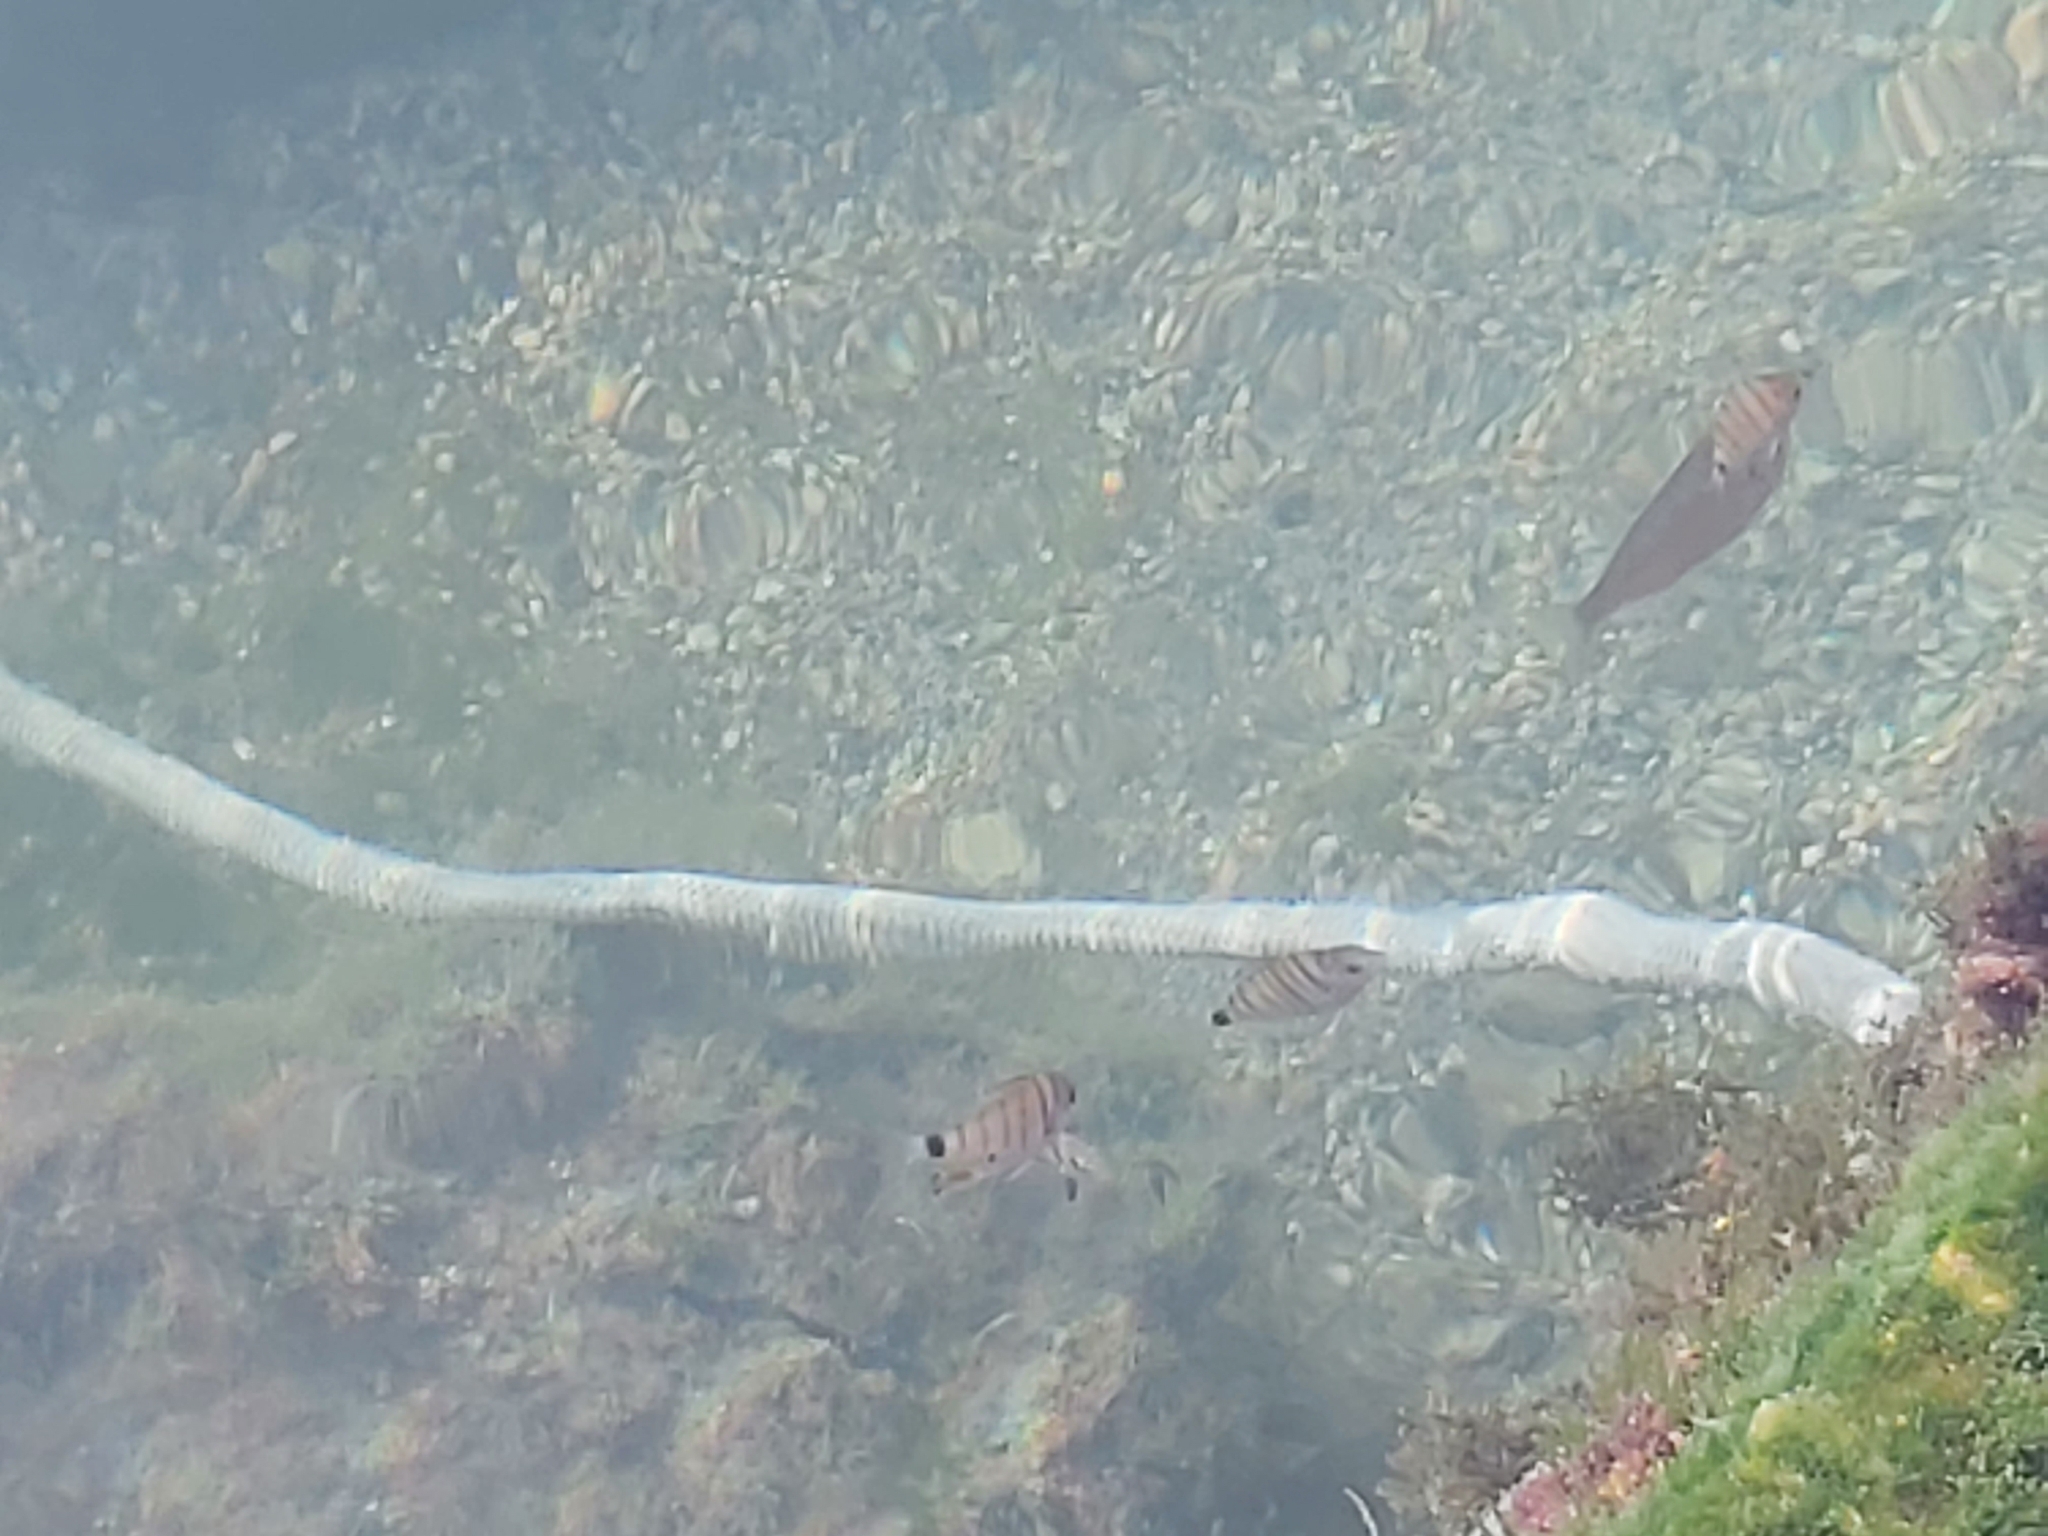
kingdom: Animalia
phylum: Chordata
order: Perciformes
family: Sparidae
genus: Diplodus
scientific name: Diplodus puntazzo
